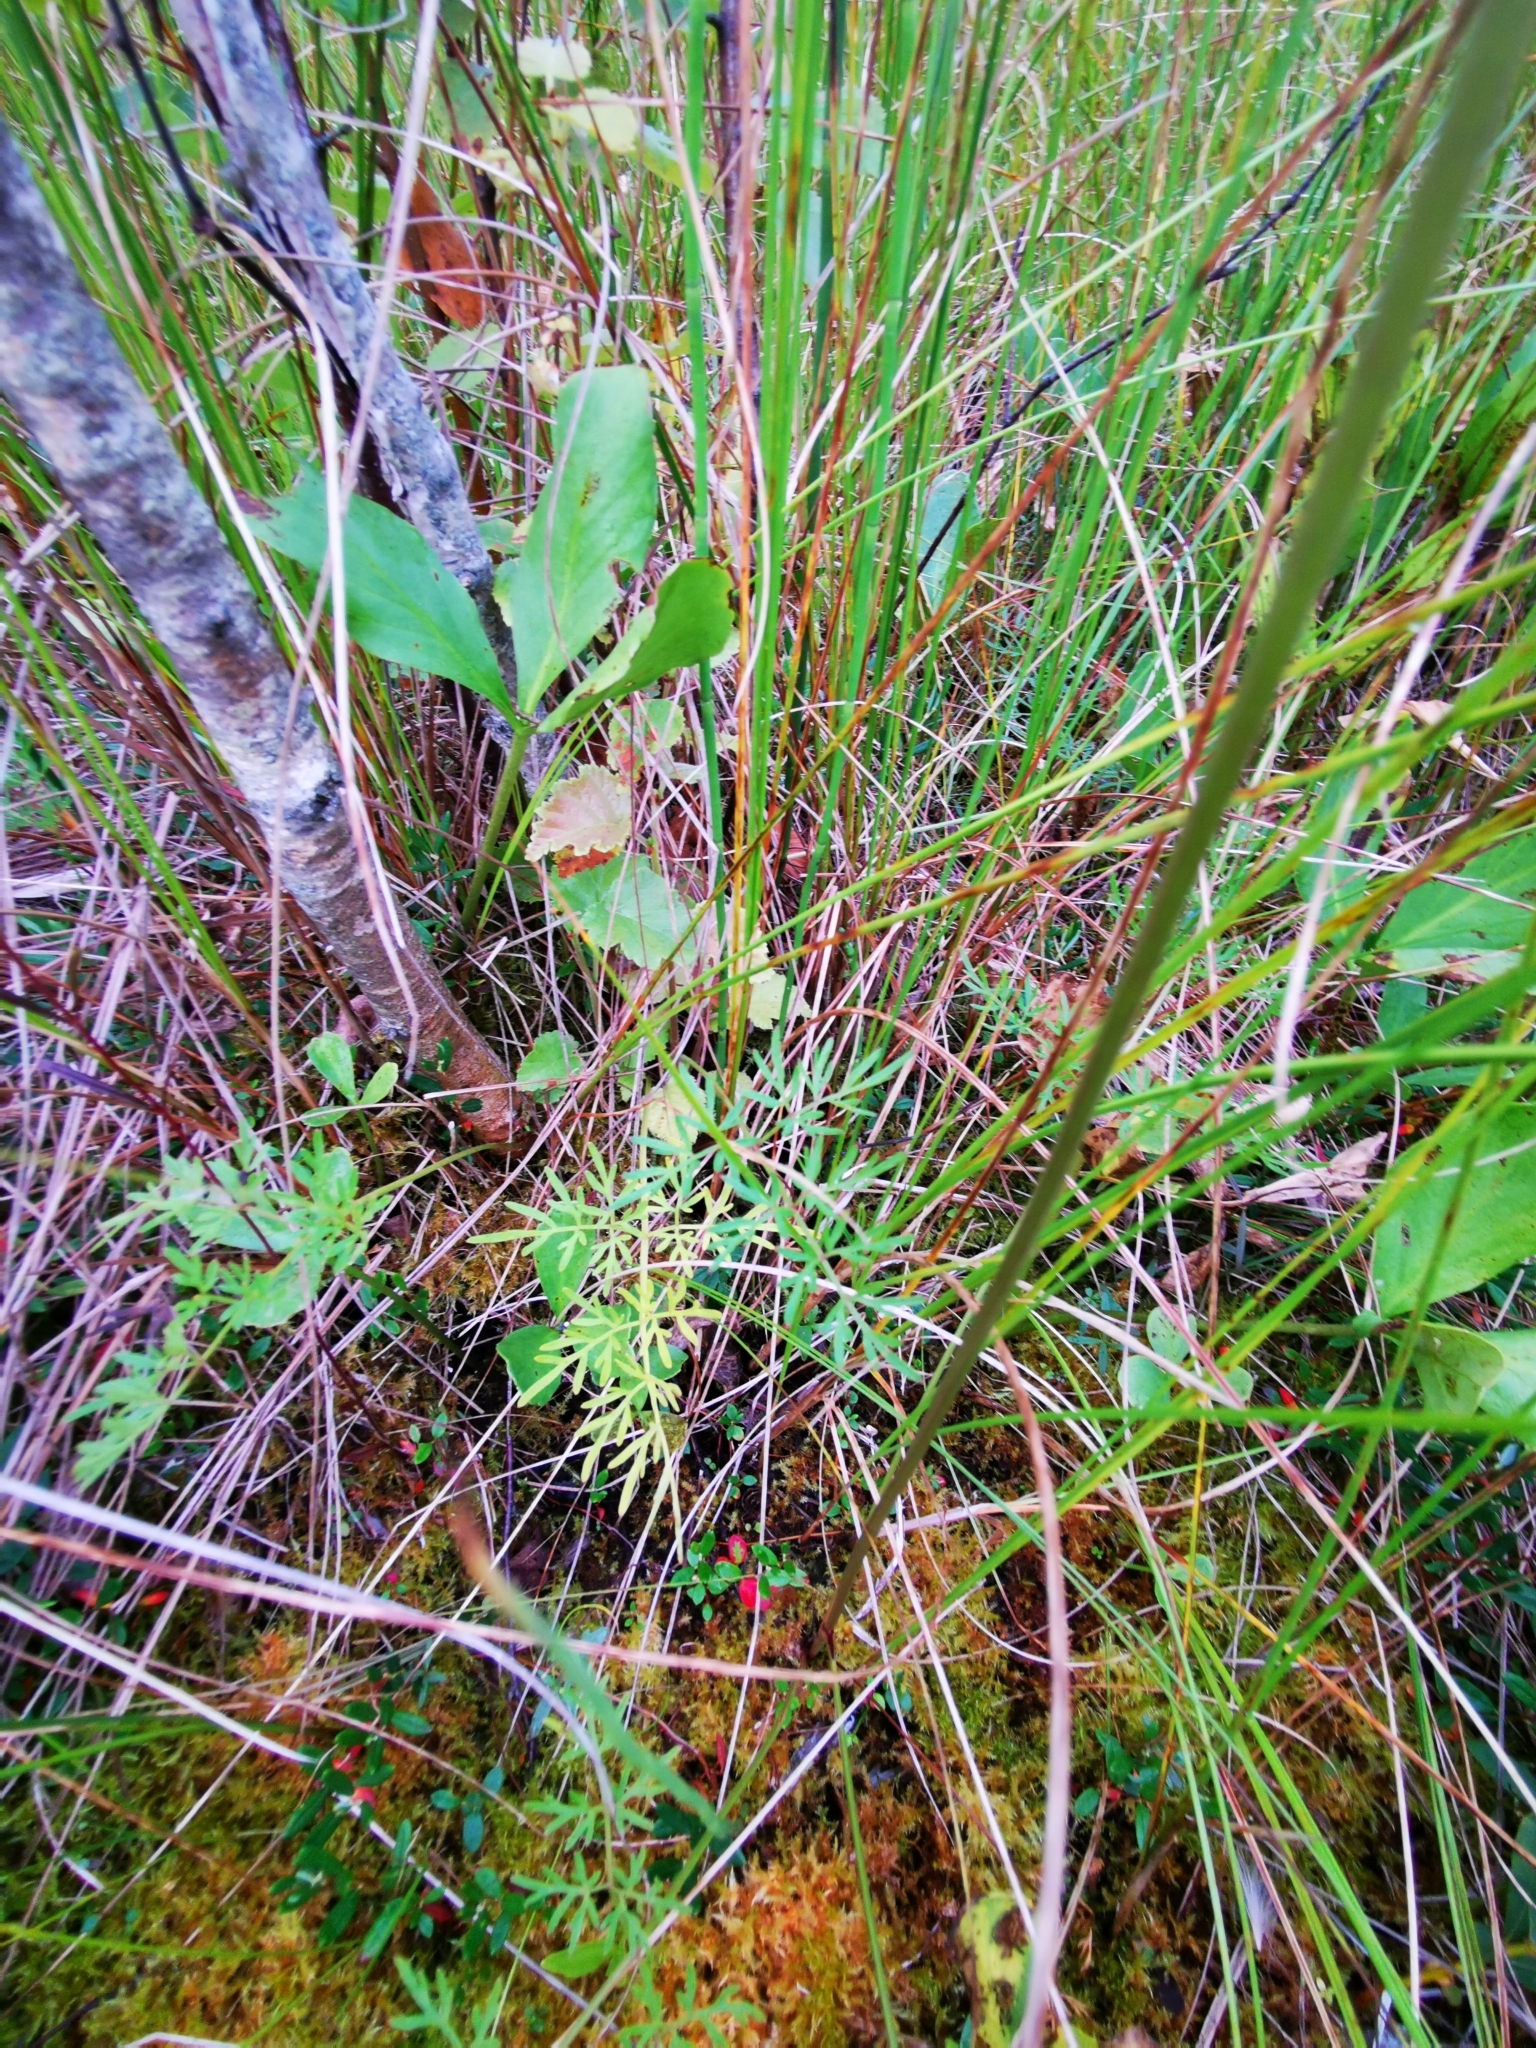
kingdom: Plantae
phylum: Tracheophyta
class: Magnoliopsida
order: Apiales
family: Apiaceae
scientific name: Apiaceae
